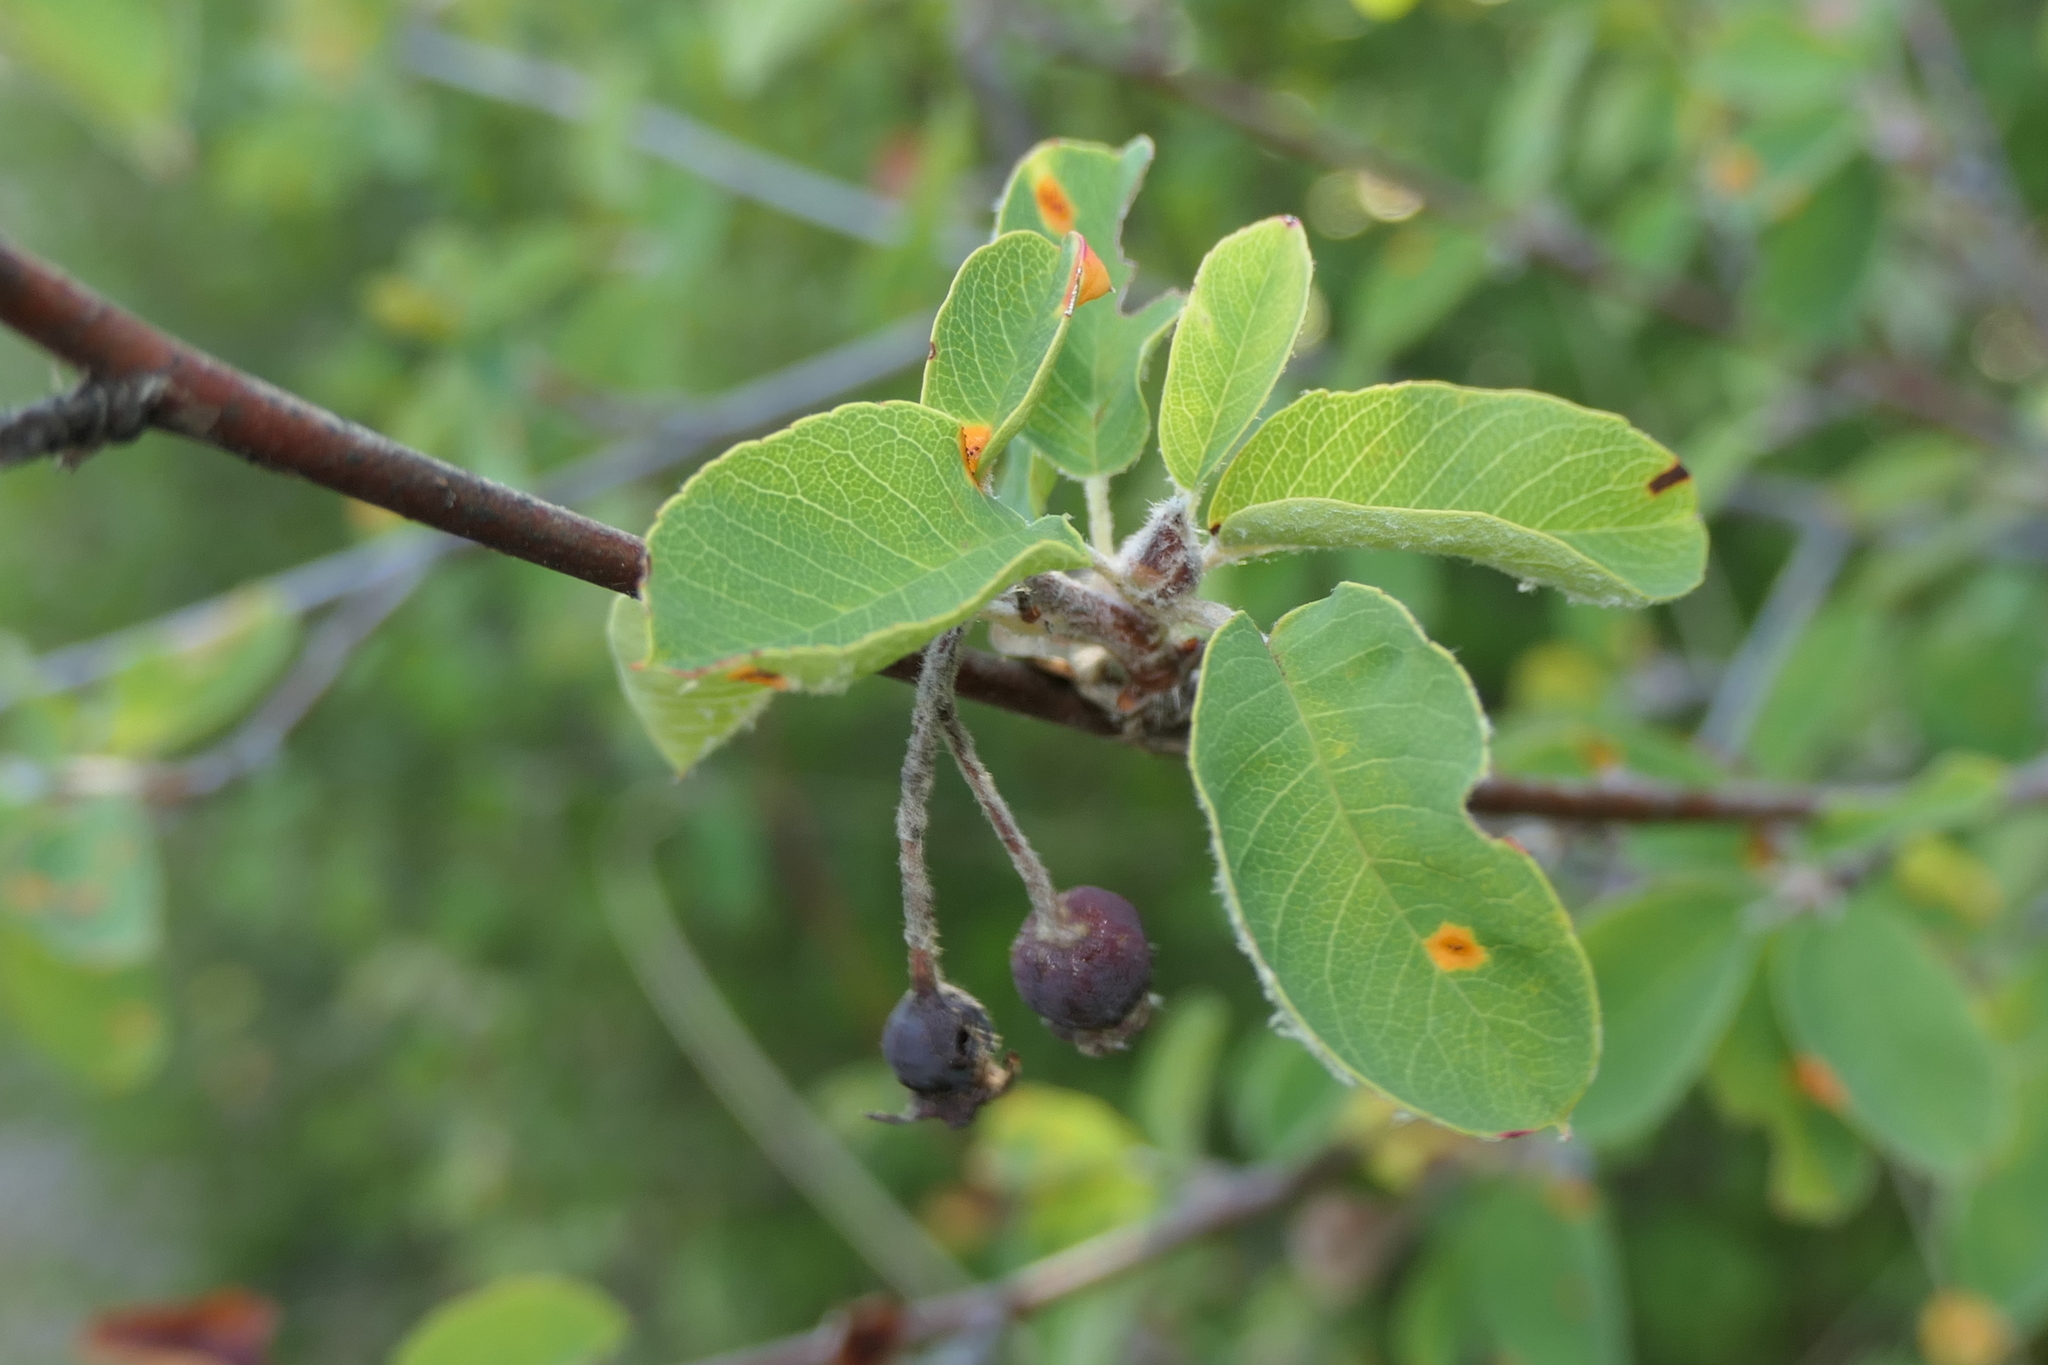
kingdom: Plantae
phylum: Tracheophyta
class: Magnoliopsida
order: Rosales
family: Rosaceae
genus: Amelanchier
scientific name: Amelanchier ovalis
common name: Serviceberry
